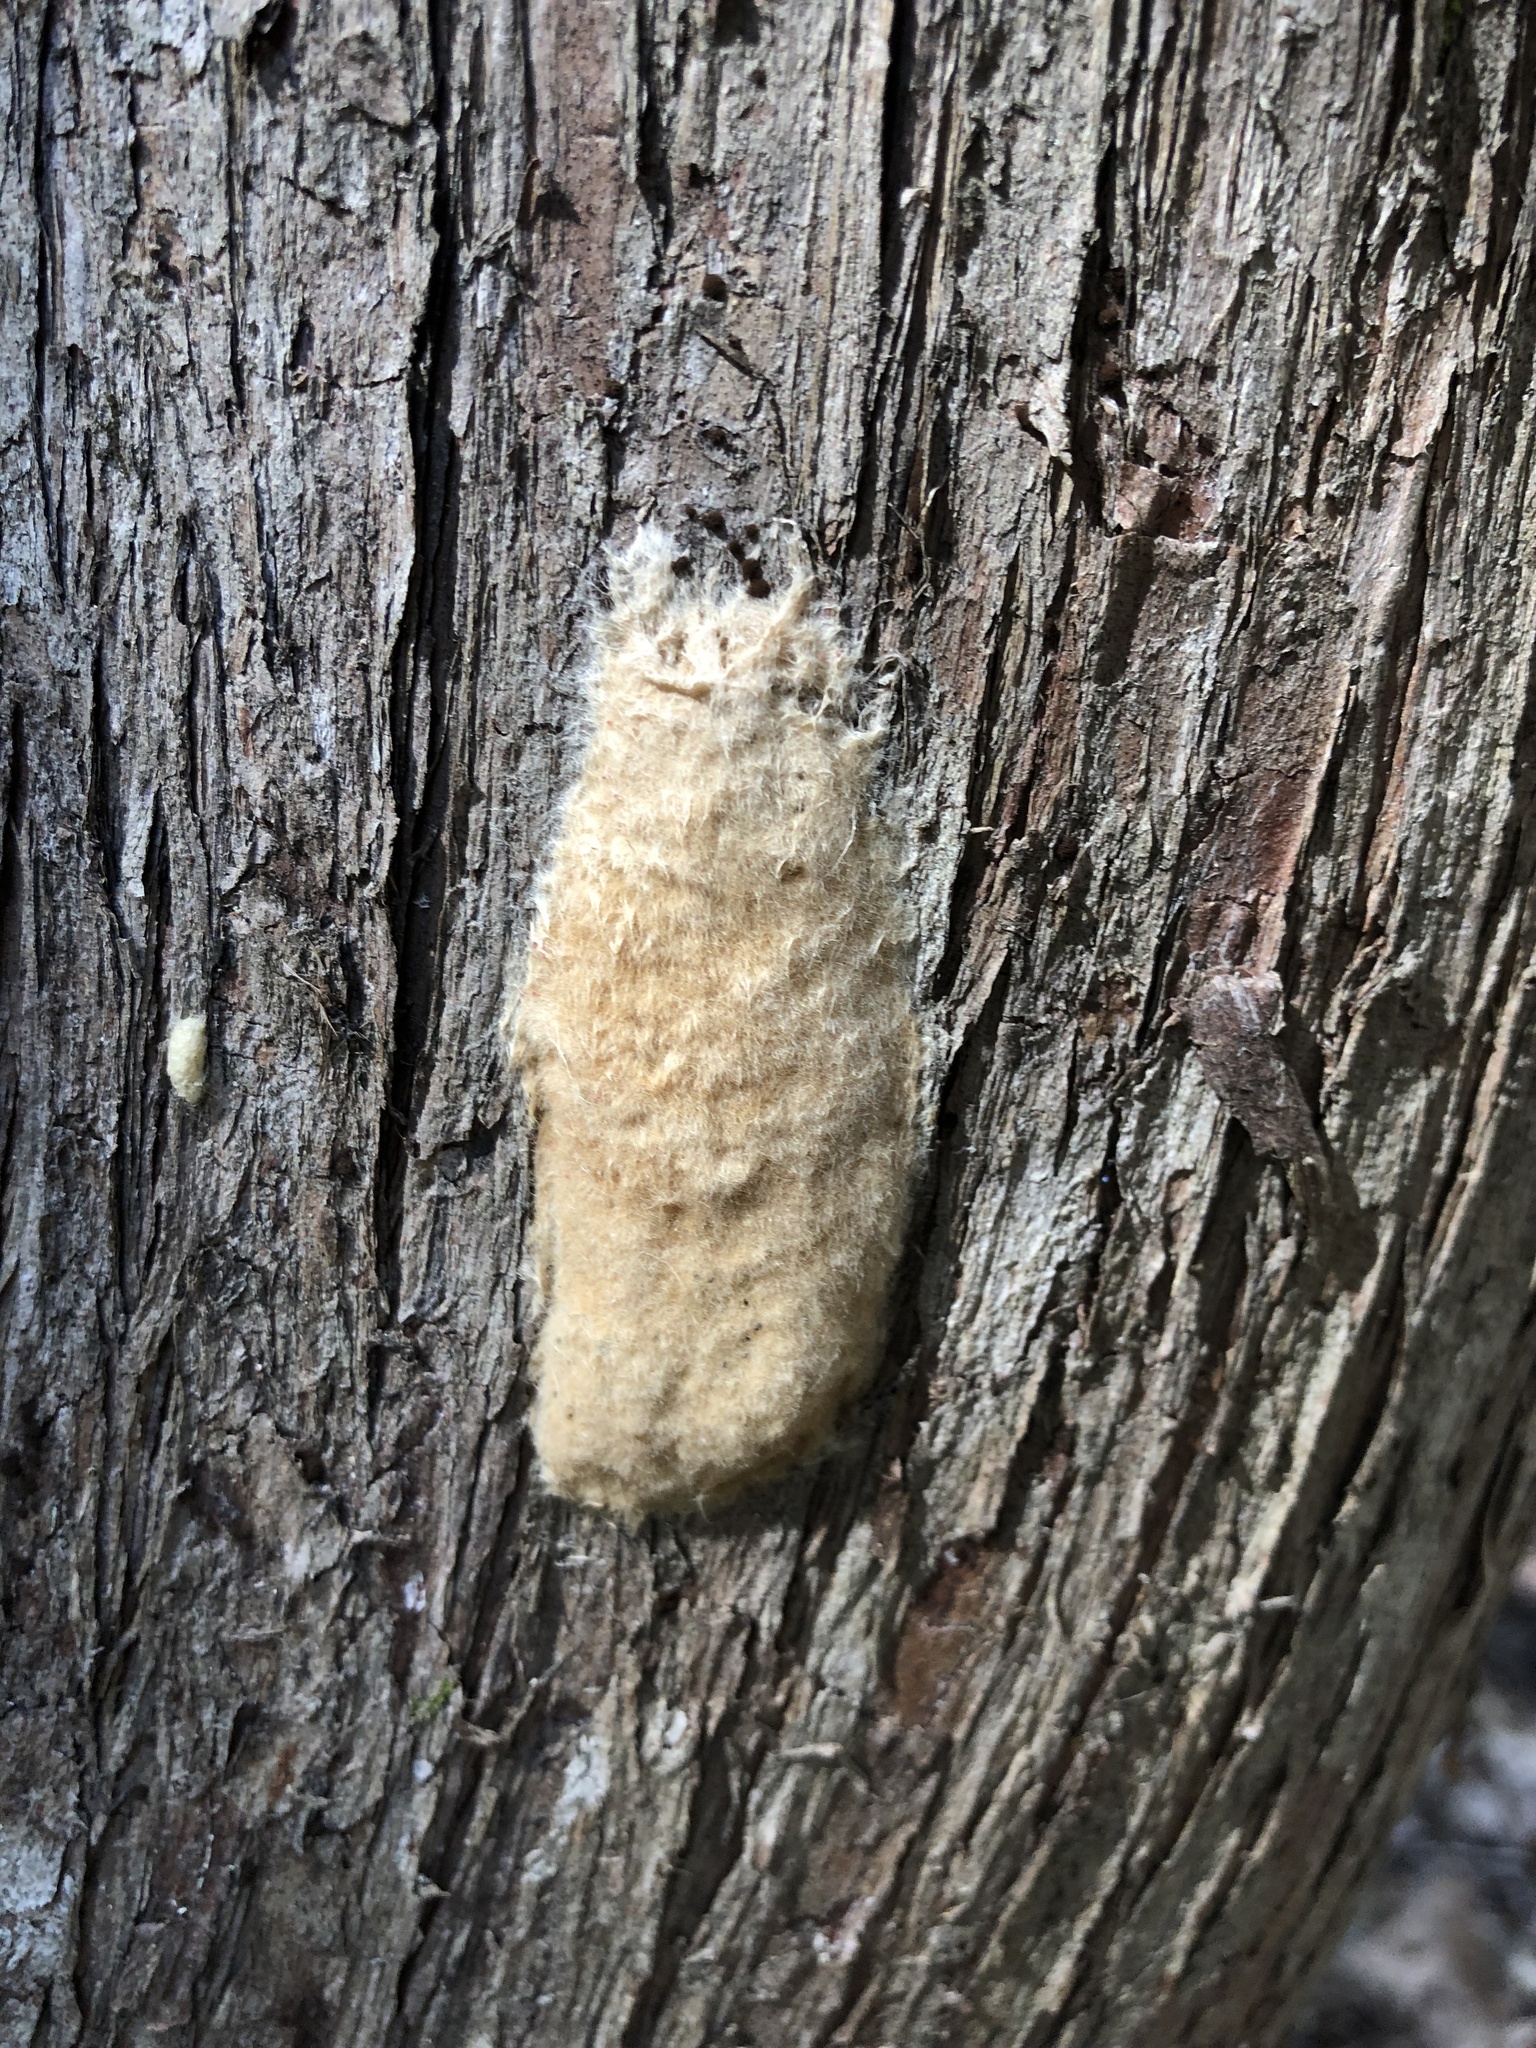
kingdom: Animalia
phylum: Arthropoda
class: Insecta
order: Lepidoptera
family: Erebidae
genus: Lymantria
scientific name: Lymantria dispar
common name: Gypsy moth
